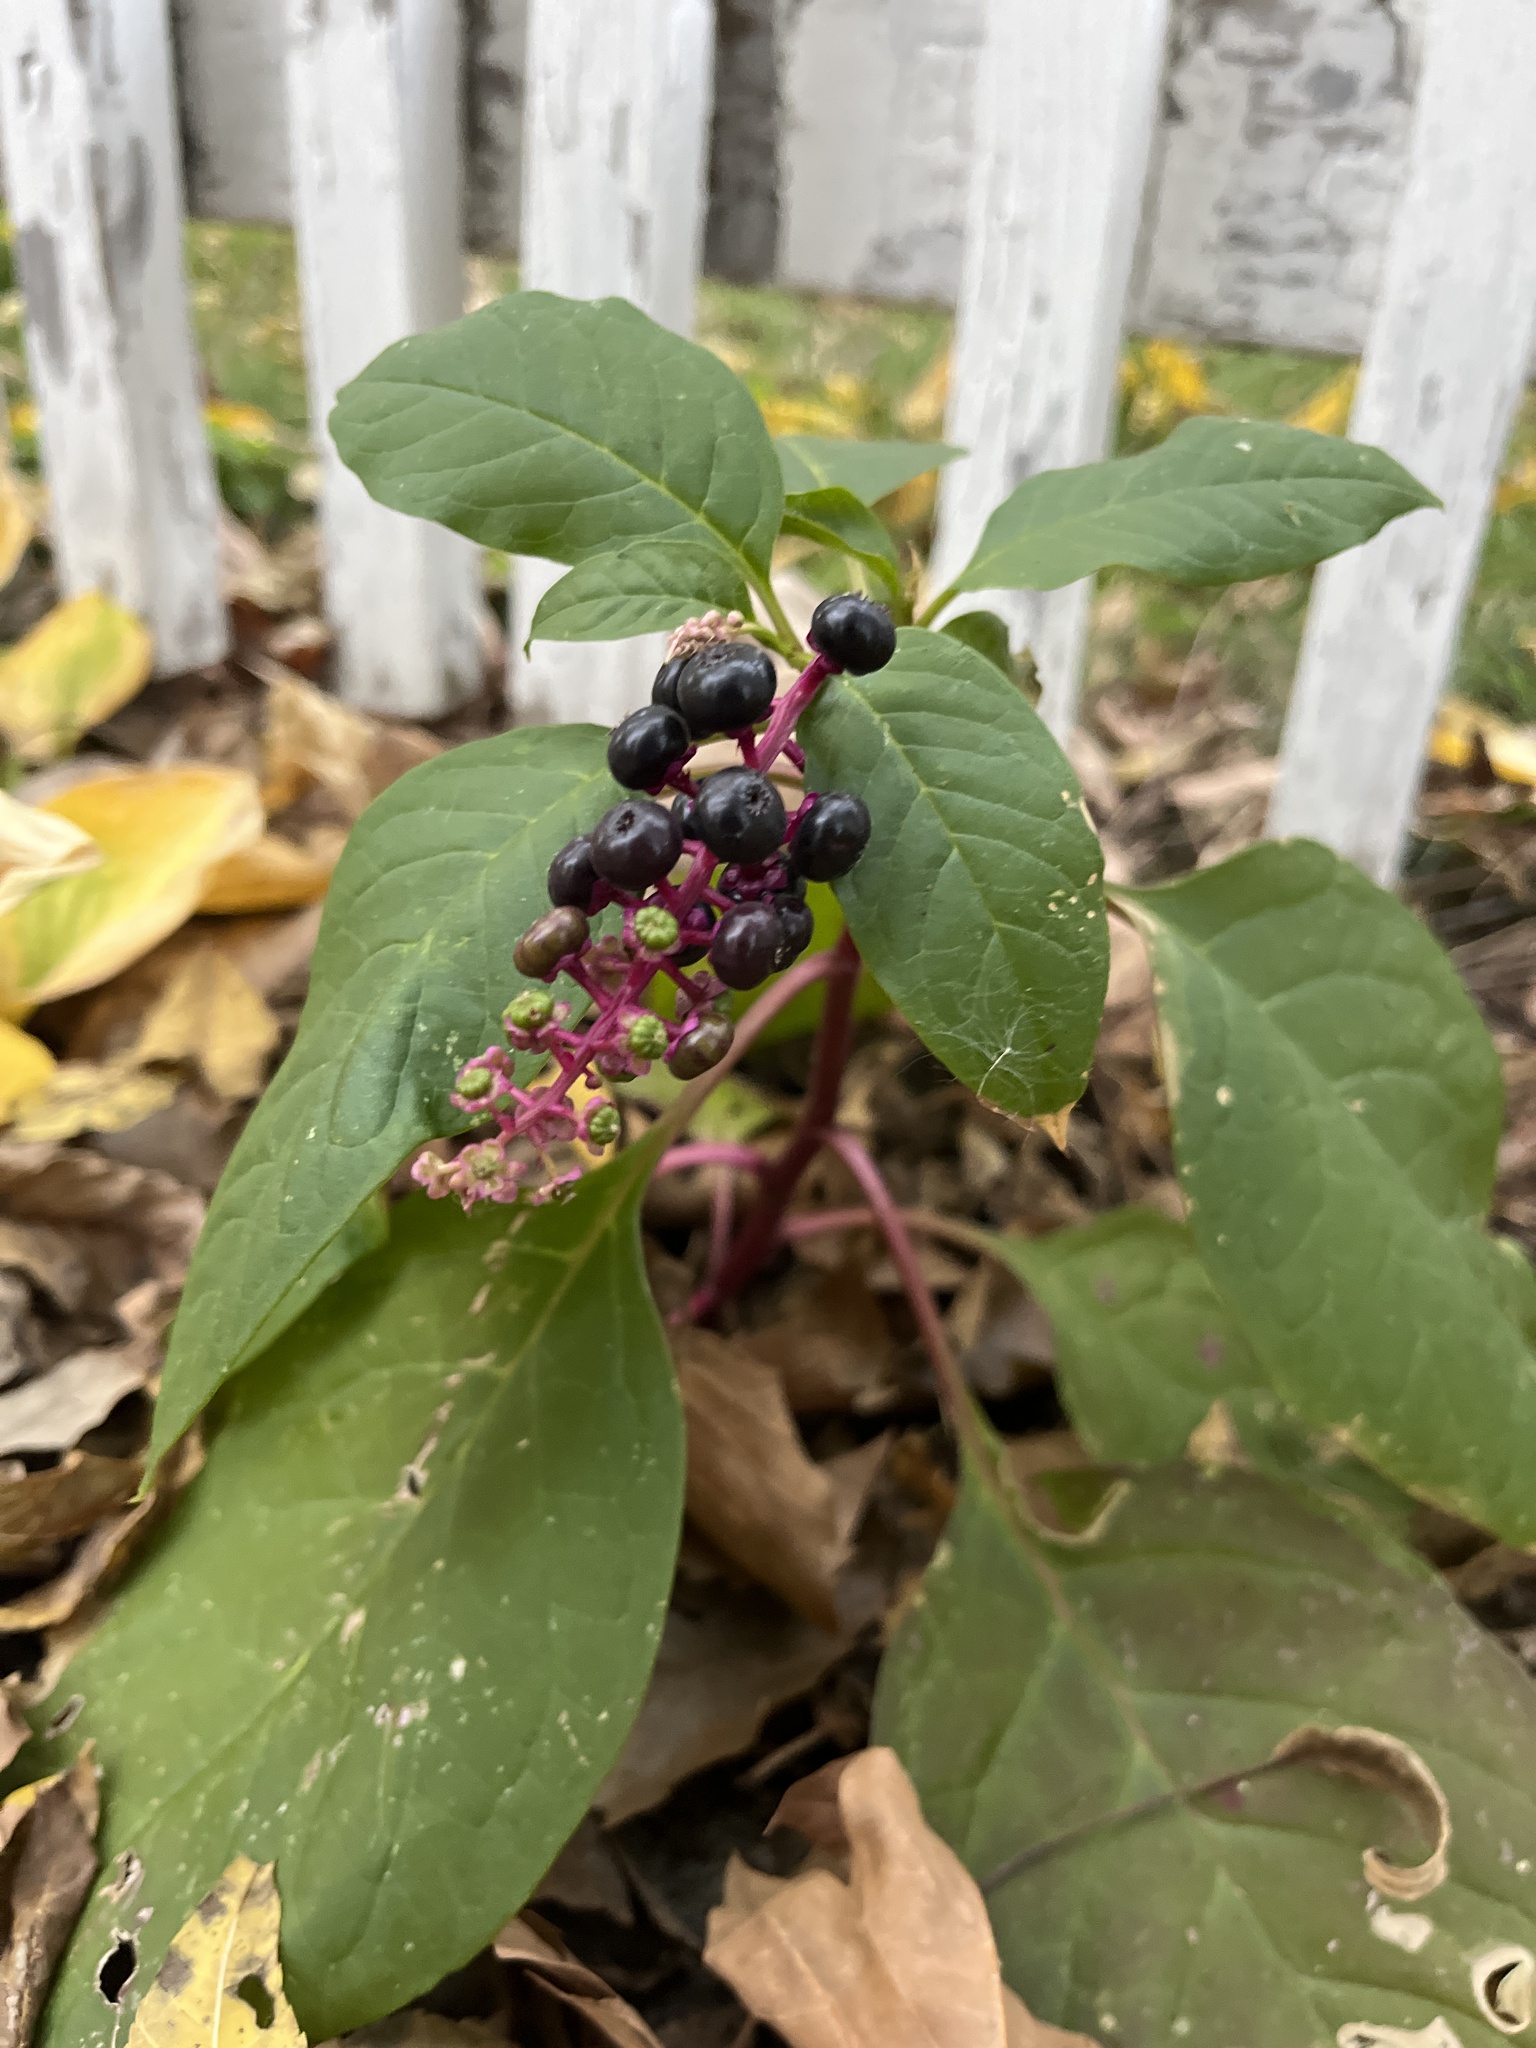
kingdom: Plantae
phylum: Tracheophyta
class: Magnoliopsida
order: Caryophyllales
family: Phytolaccaceae
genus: Phytolacca
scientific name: Phytolacca americana
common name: American pokeweed
